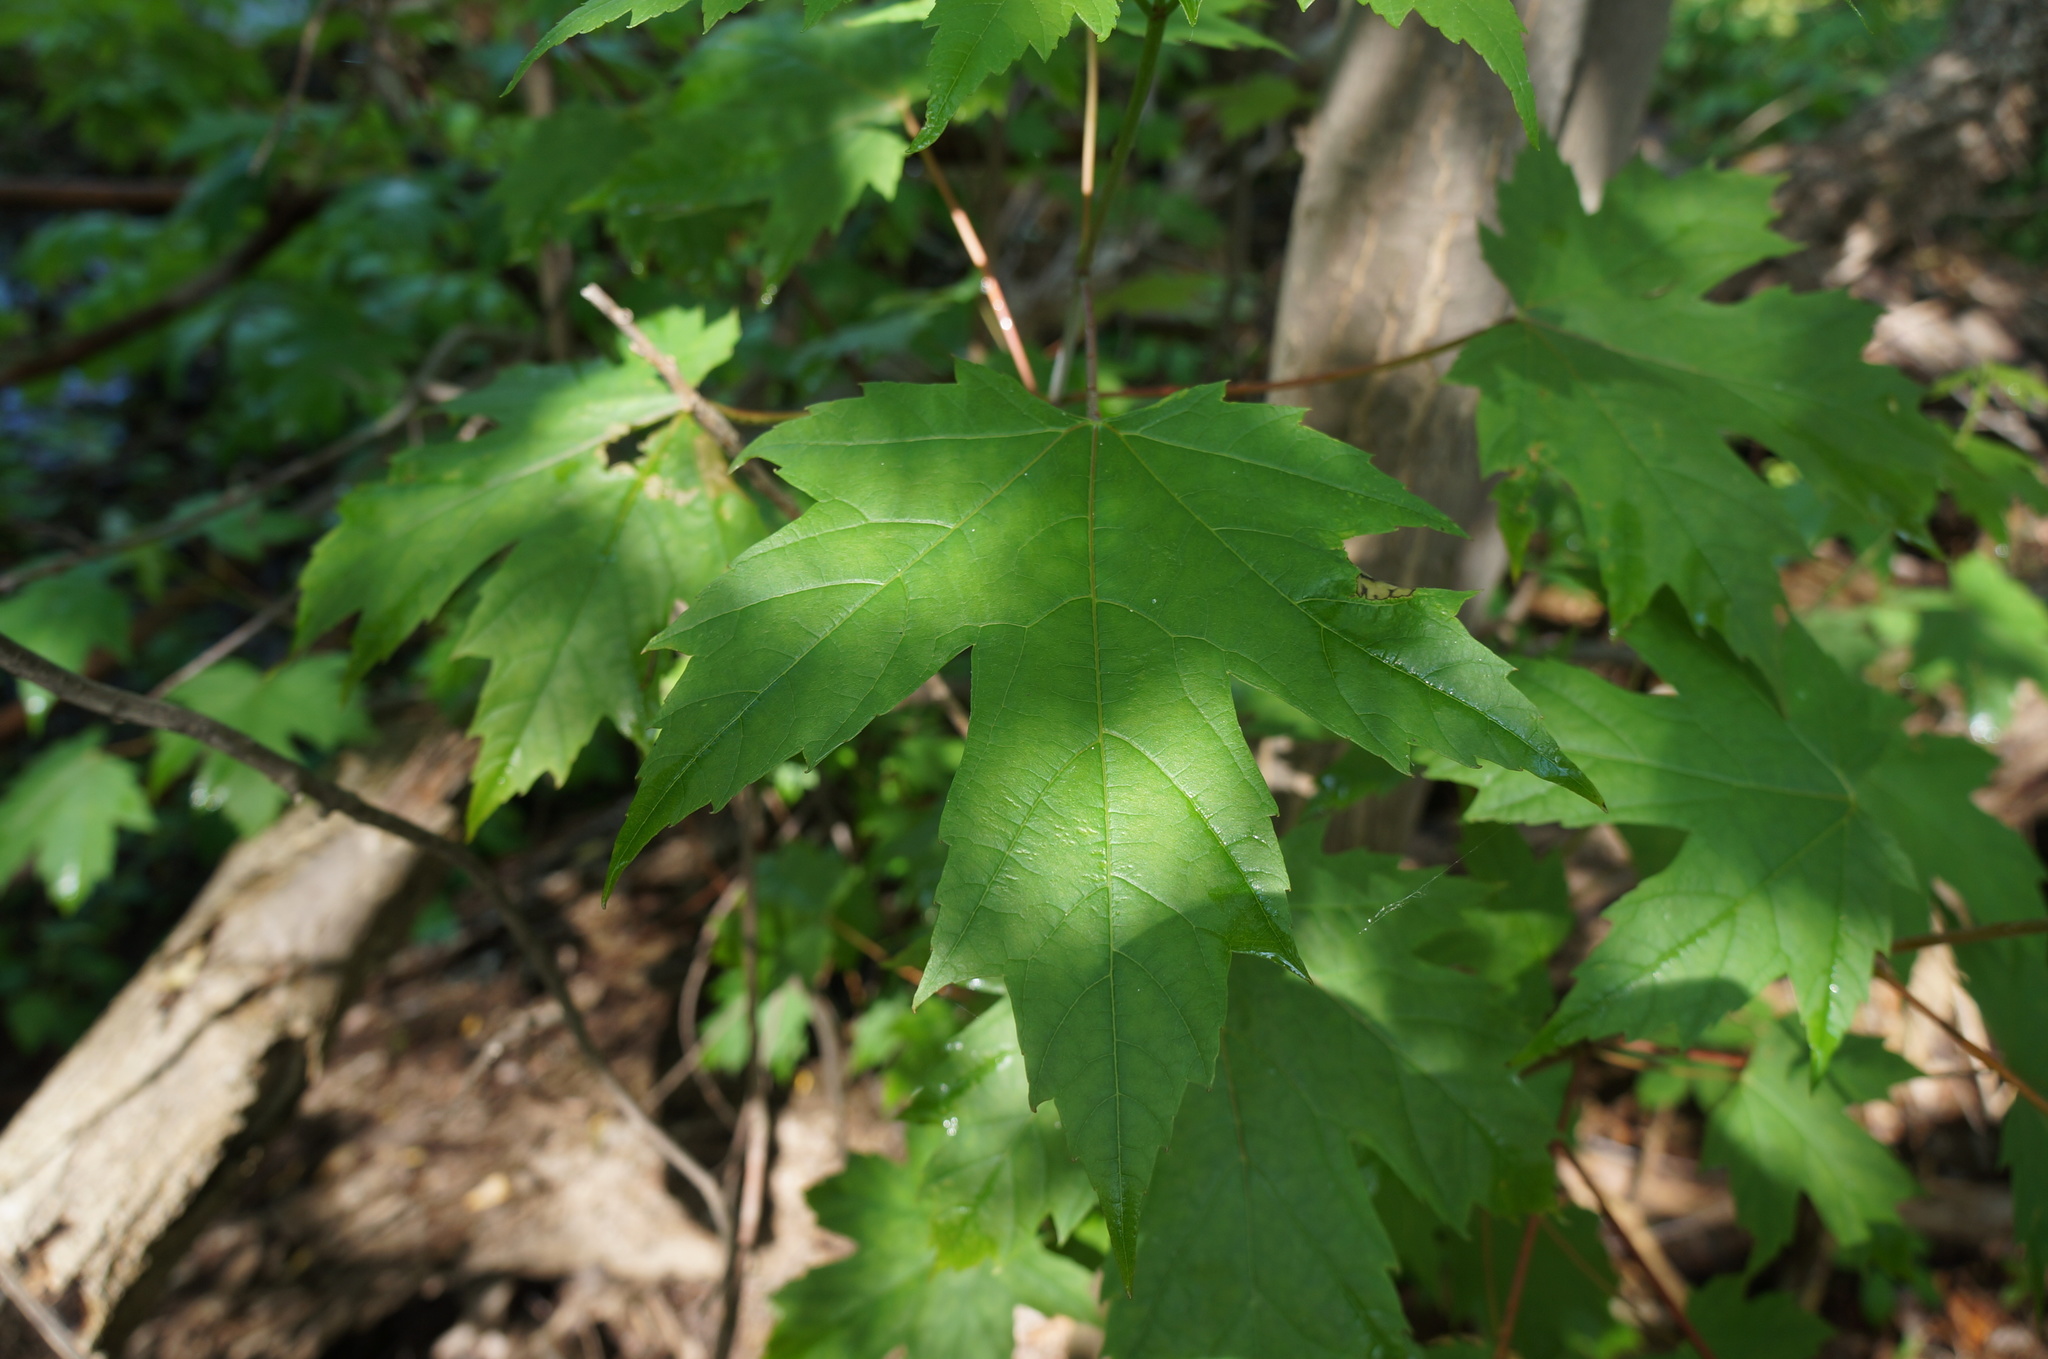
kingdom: Plantae
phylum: Tracheophyta
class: Magnoliopsida
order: Sapindales
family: Sapindaceae
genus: Acer
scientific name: Acer saccharinum
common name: Silver maple
